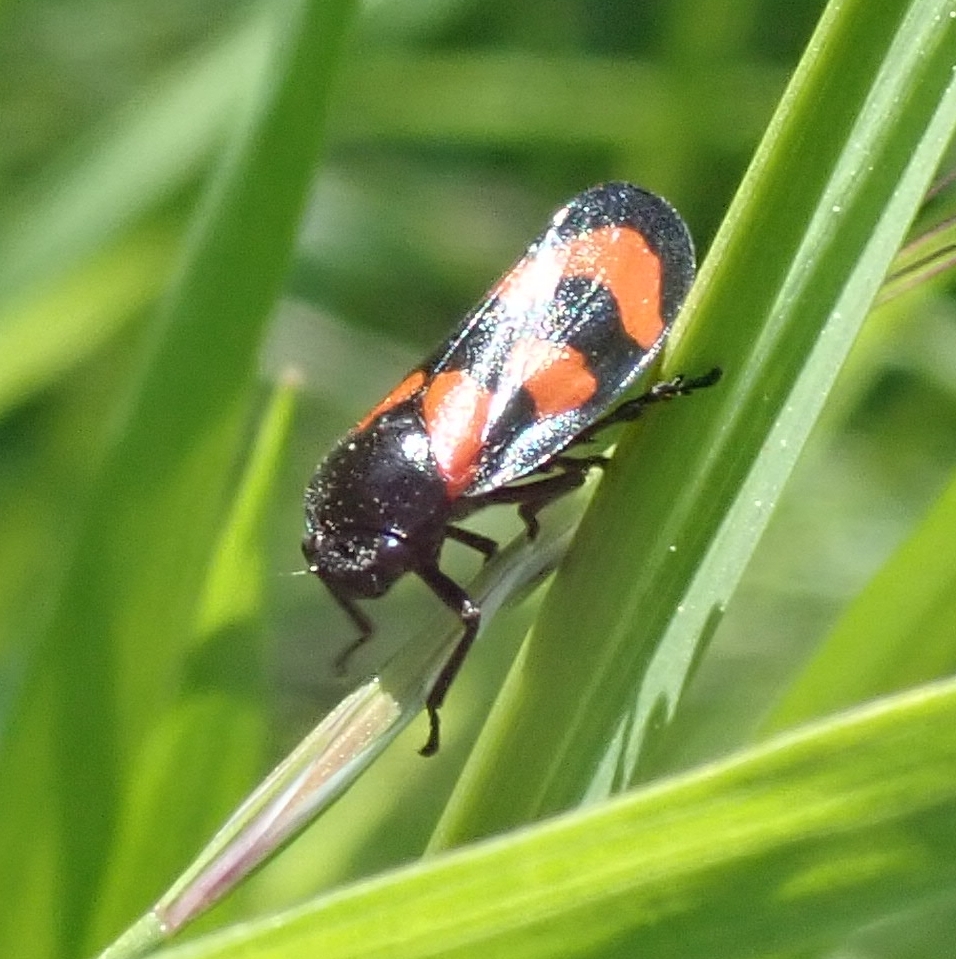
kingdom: Animalia
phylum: Arthropoda
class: Insecta
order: Hemiptera
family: Cercopidae
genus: Cercopis
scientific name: Cercopis vulnerata
